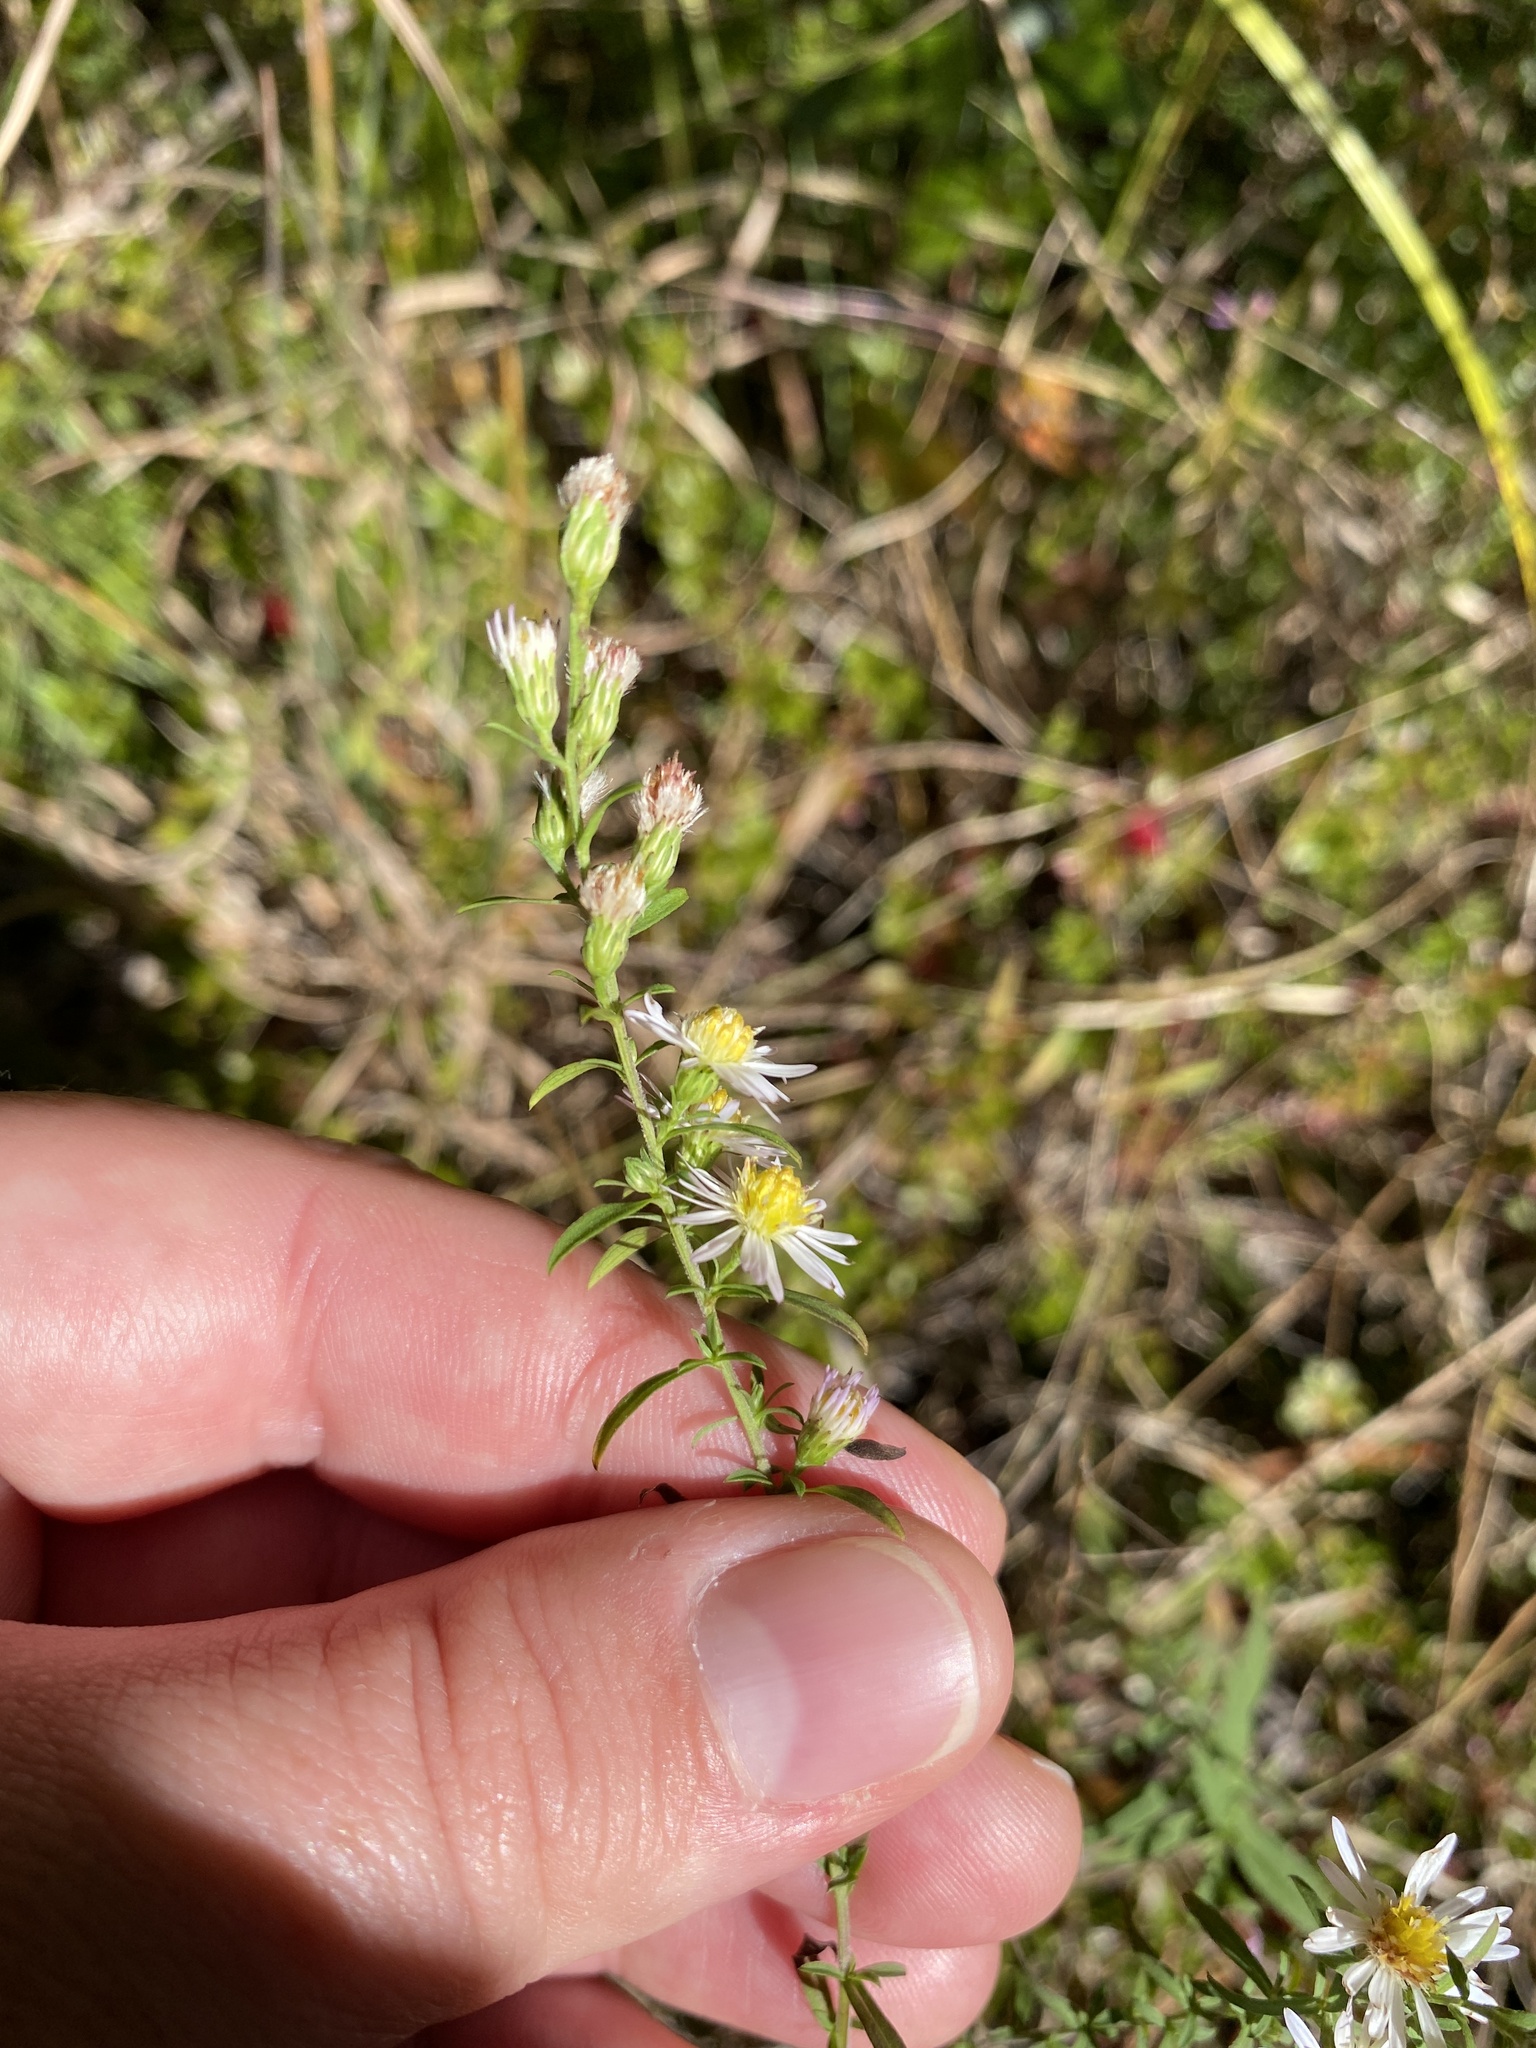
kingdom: Plantae
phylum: Tracheophyta
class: Magnoliopsida
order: Asterales
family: Asteraceae
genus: Symphyotrichum
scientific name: Symphyotrichum racemosum
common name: Small white aster
